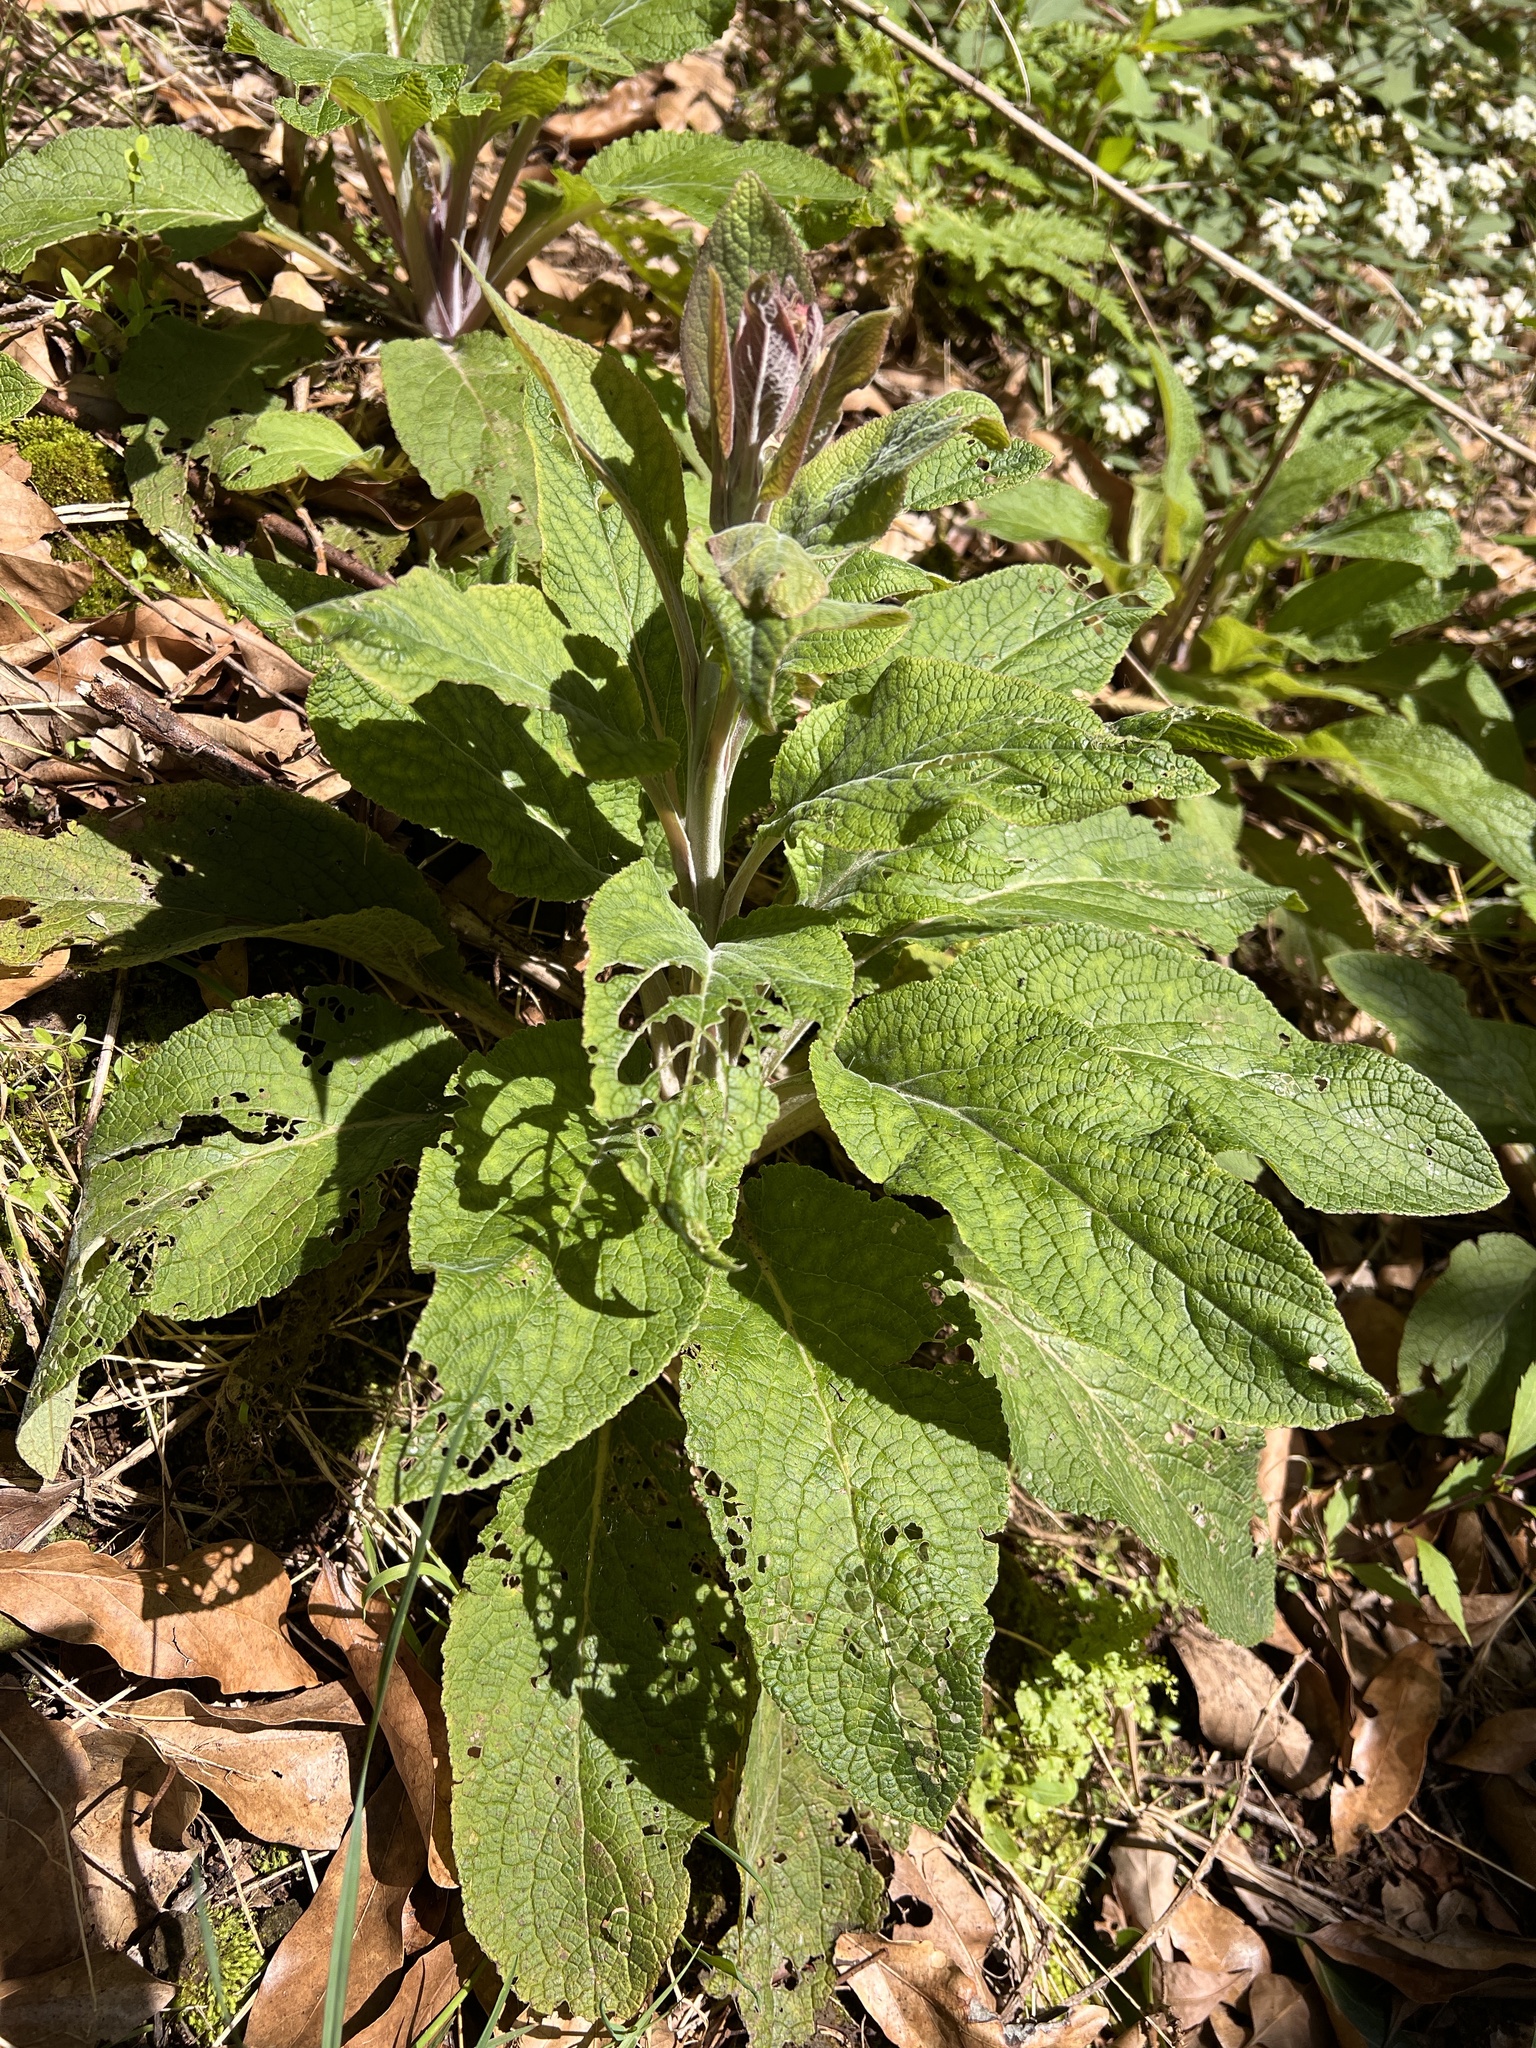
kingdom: Plantae
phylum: Tracheophyta
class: Magnoliopsida
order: Lamiales
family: Plantaginaceae
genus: Digitalis
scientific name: Digitalis purpurea
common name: Foxglove
